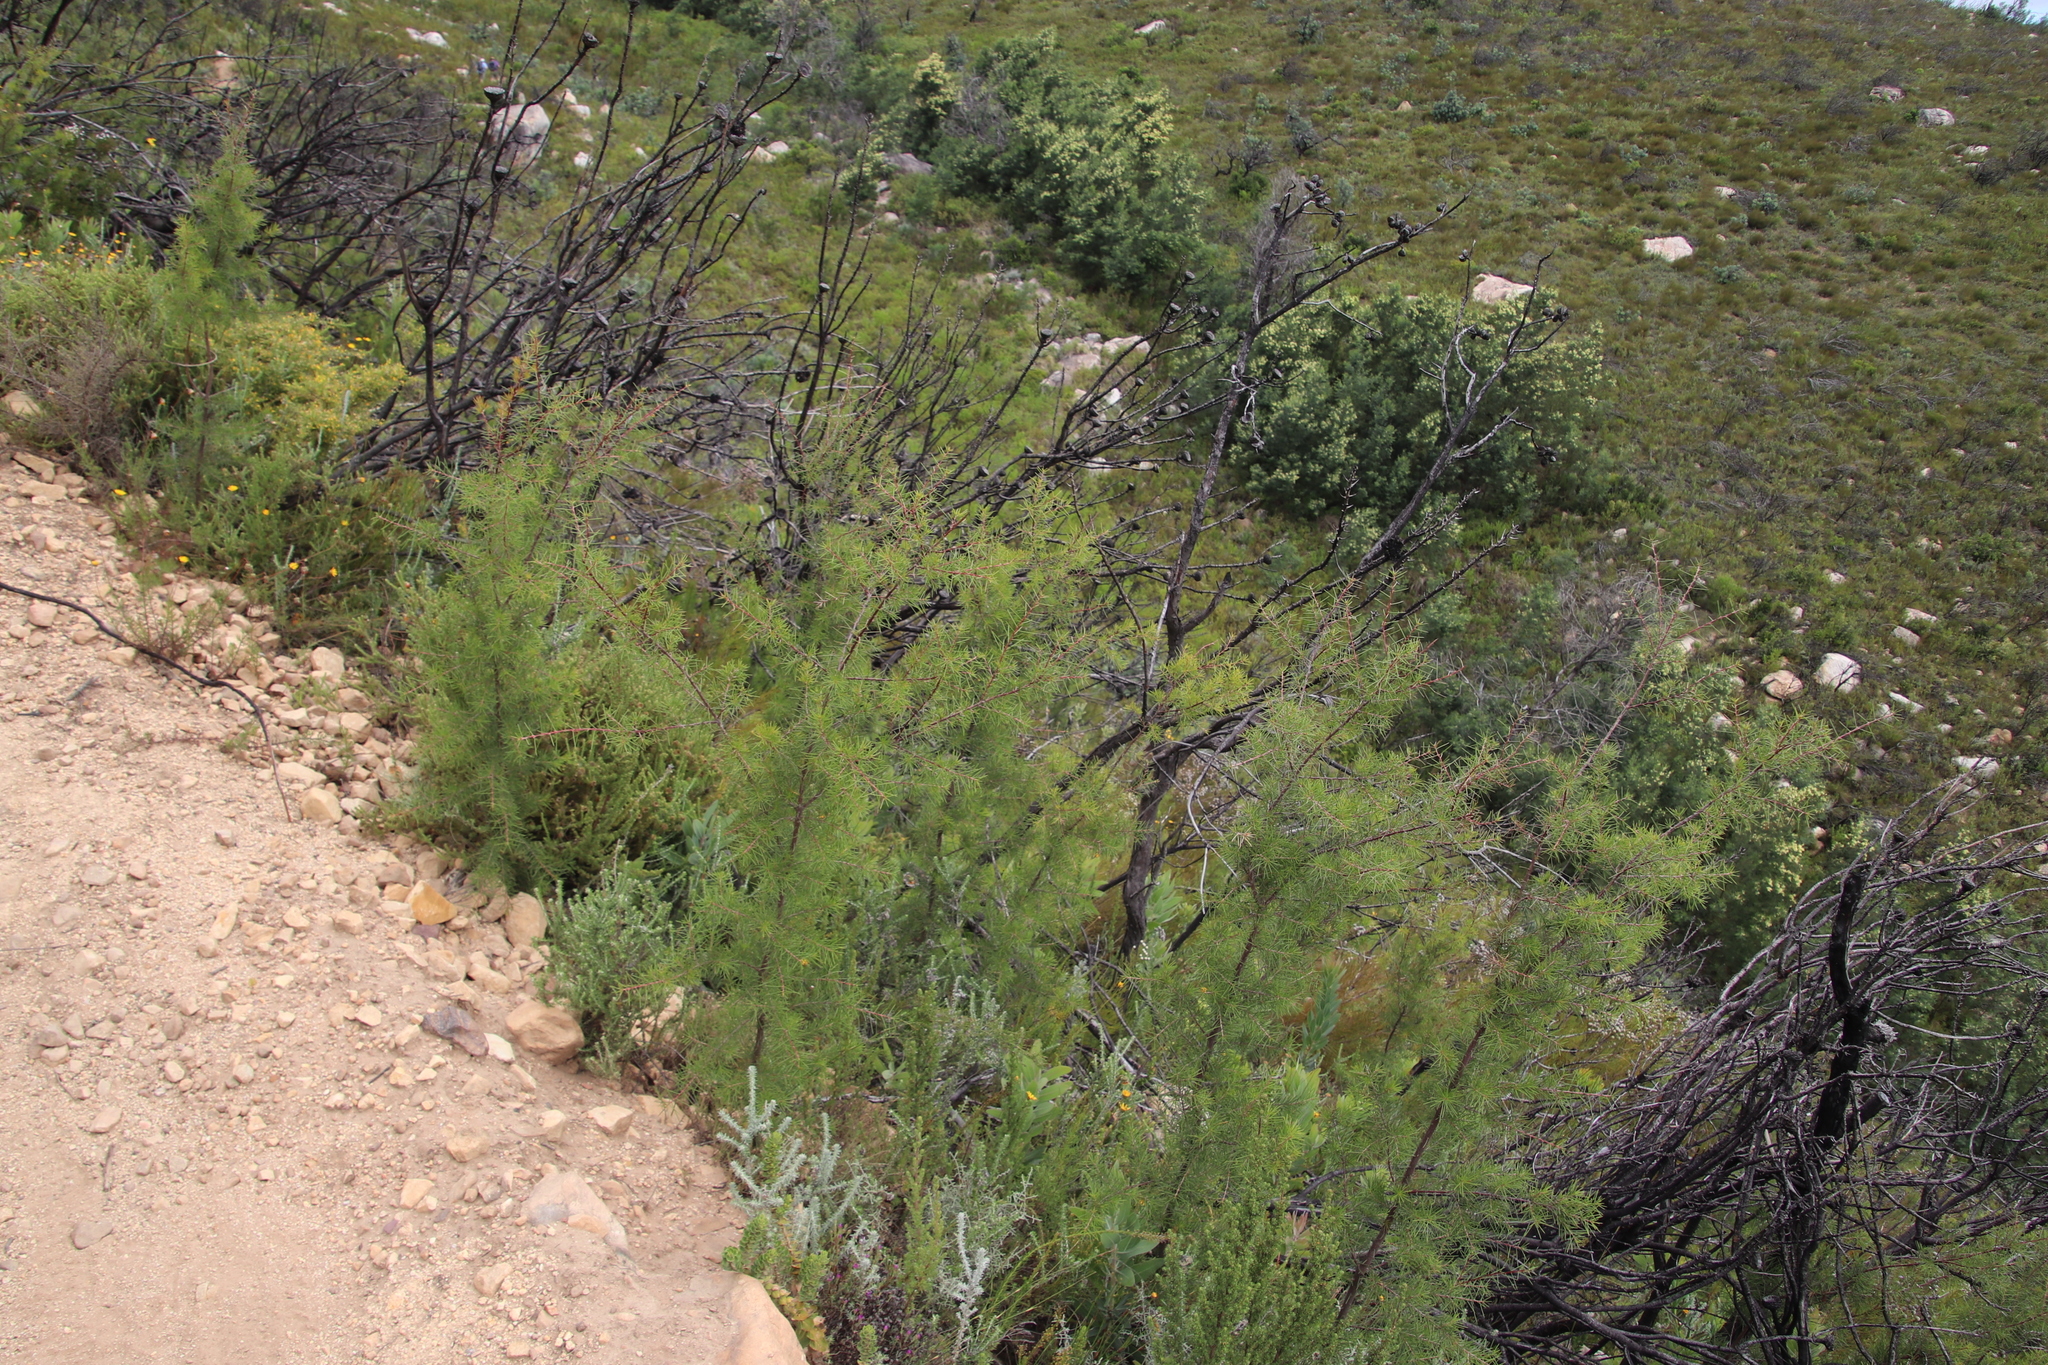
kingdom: Plantae
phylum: Tracheophyta
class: Magnoliopsida
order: Proteales
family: Proteaceae
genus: Hakea
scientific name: Hakea sericea
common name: Needle bush
